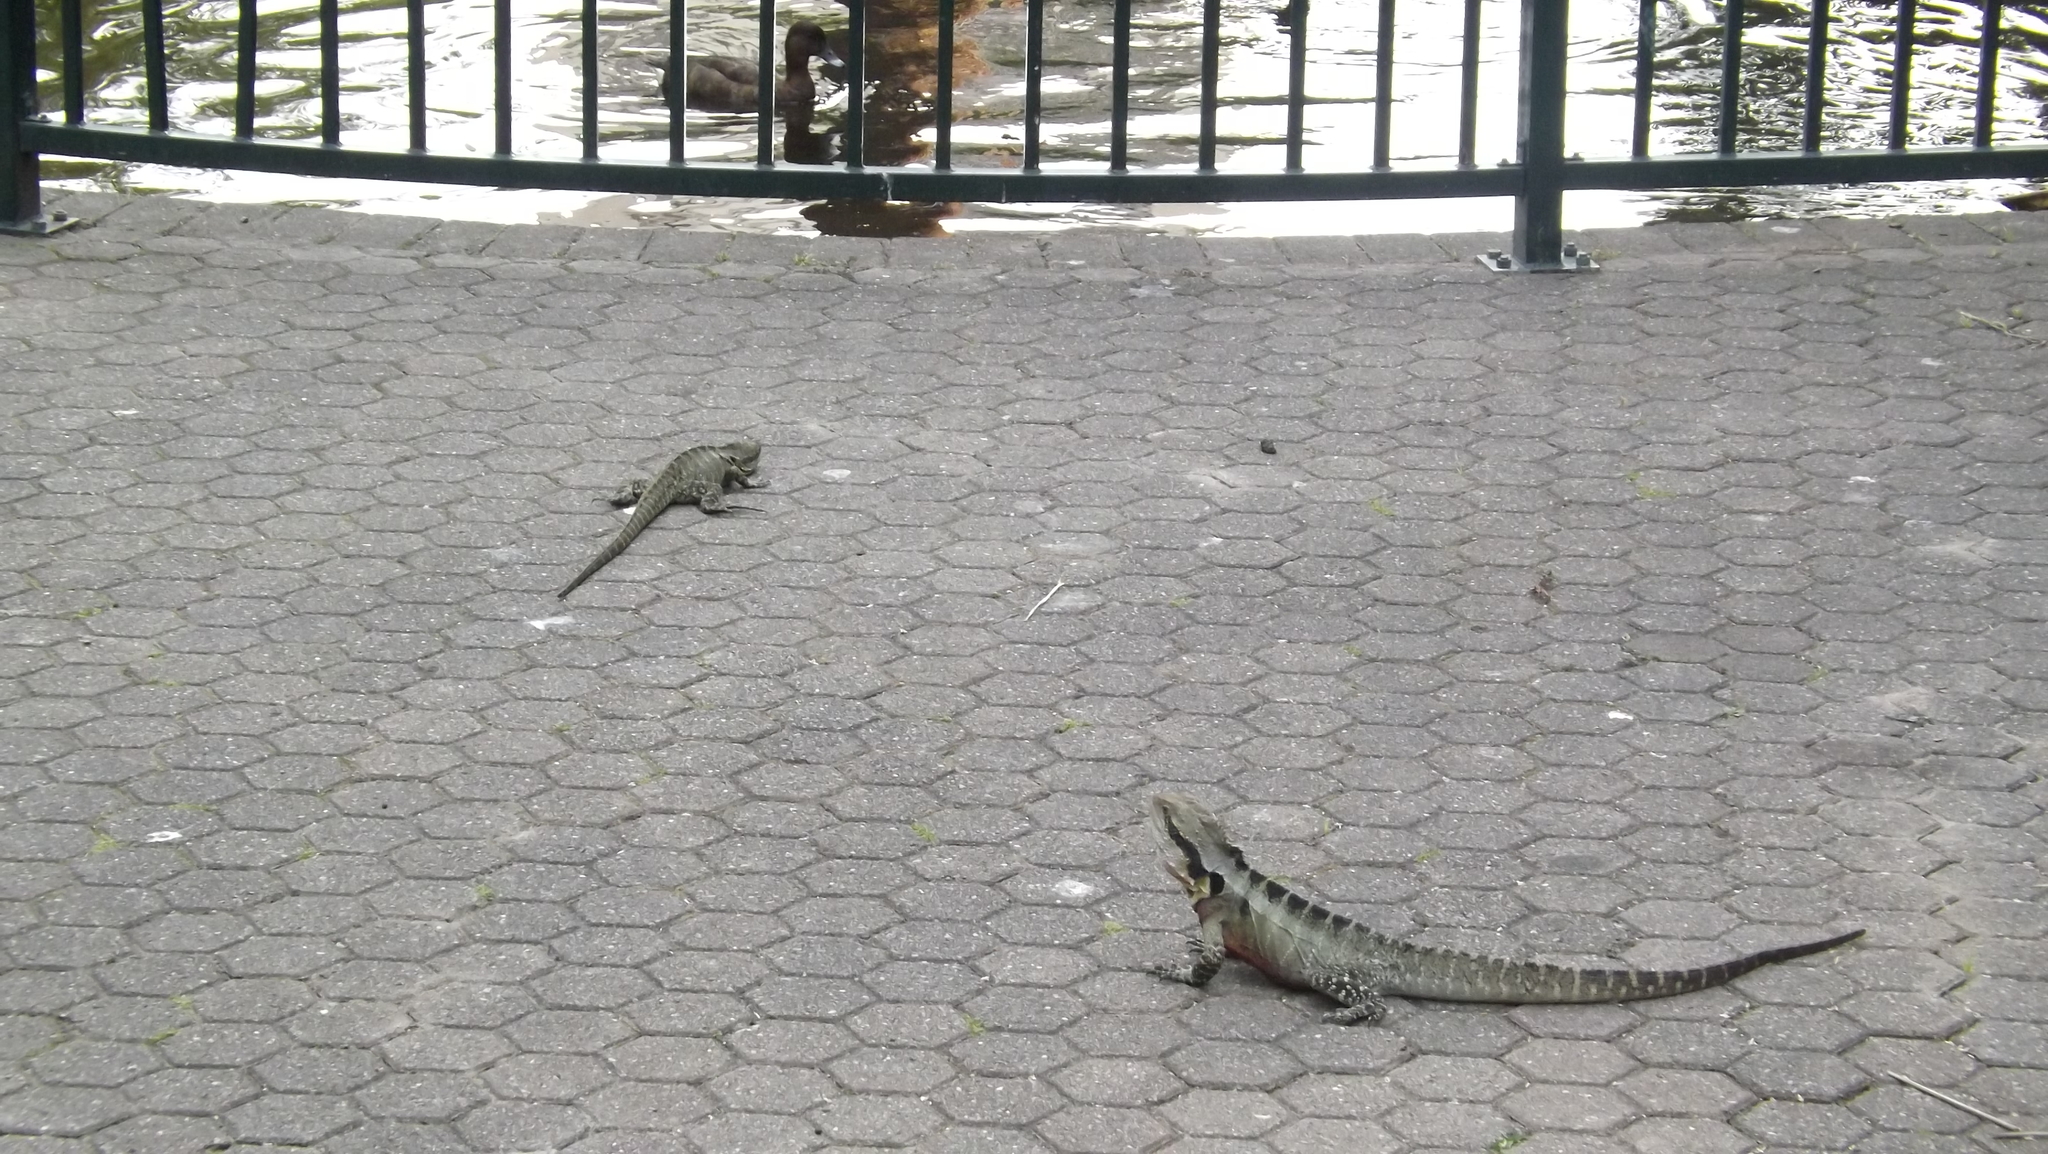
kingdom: Animalia
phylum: Chordata
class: Squamata
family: Agamidae
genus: Intellagama
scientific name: Intellagama lesueurii
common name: Eastern water dragon
